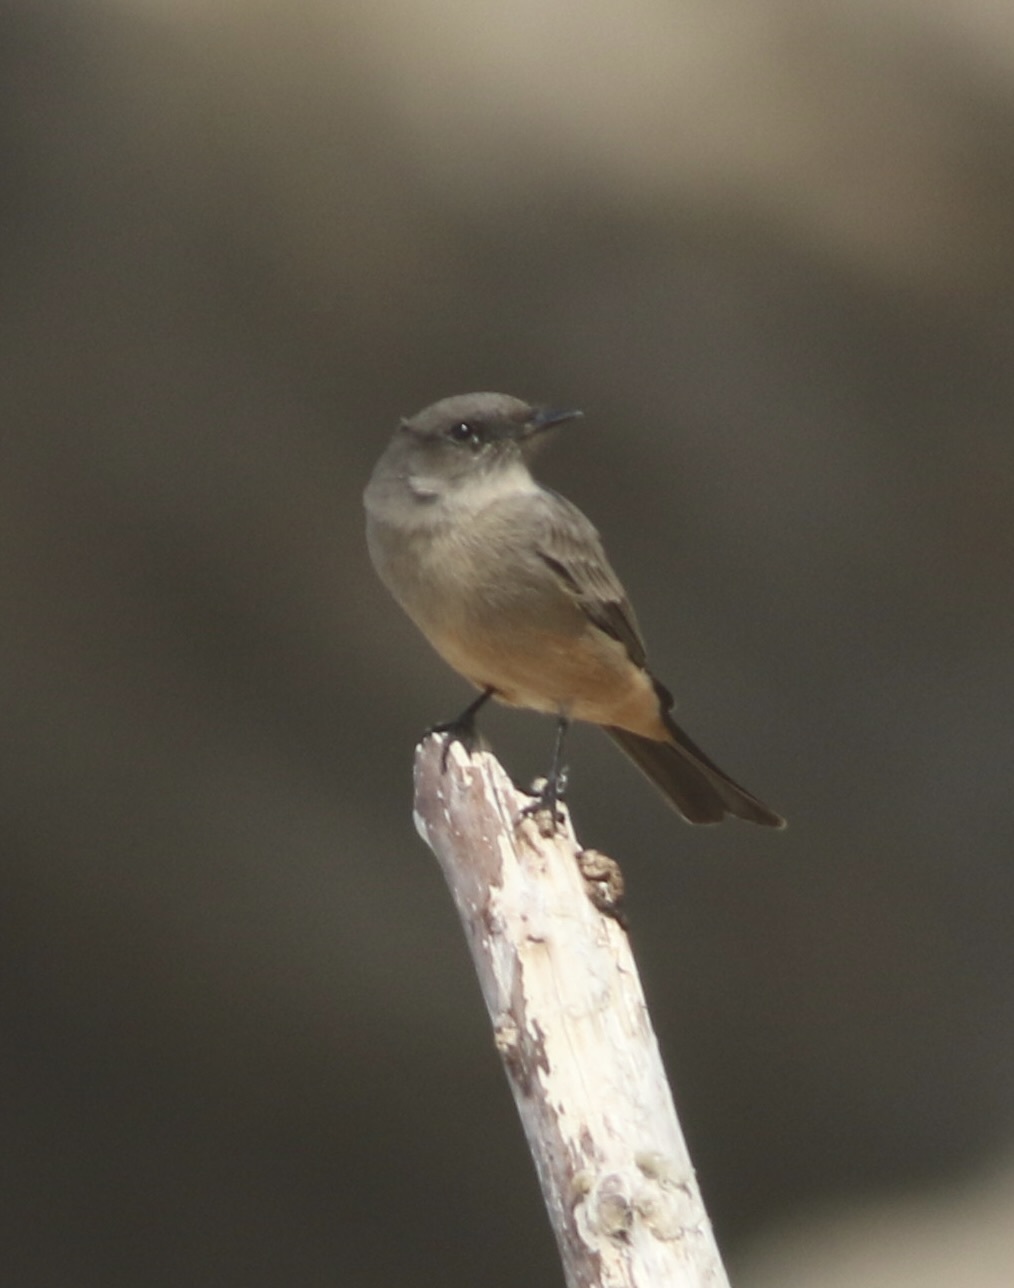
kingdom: Animalia
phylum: Chordata
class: Aves
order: Passeriformes
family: Tyrannidae
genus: Sayornis
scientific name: Sayornis saya
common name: Say's phoebe
